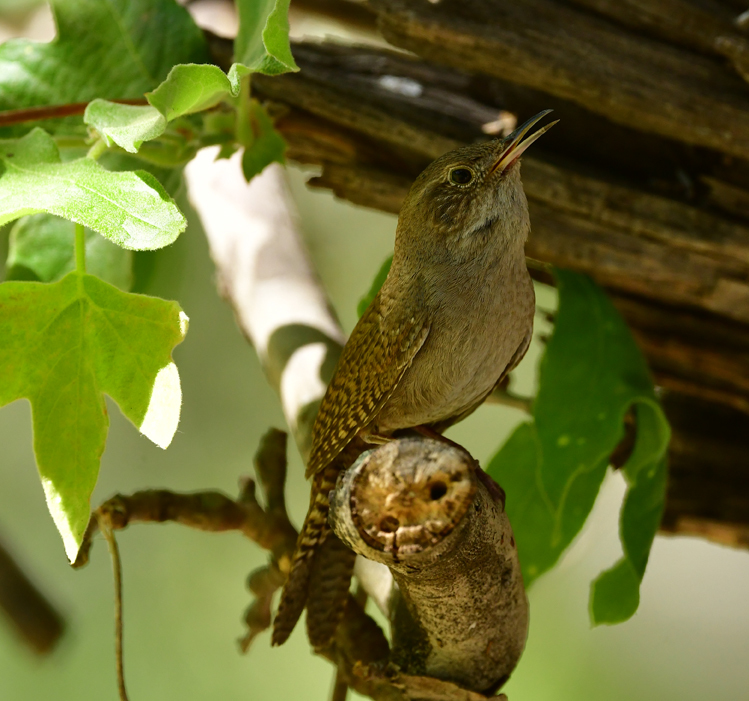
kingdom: Animalia
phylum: Chordata
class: Aves
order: Passeriformes
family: Troglodytidae
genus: Troglodytes
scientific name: Troglodytes aedon
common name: House wren
